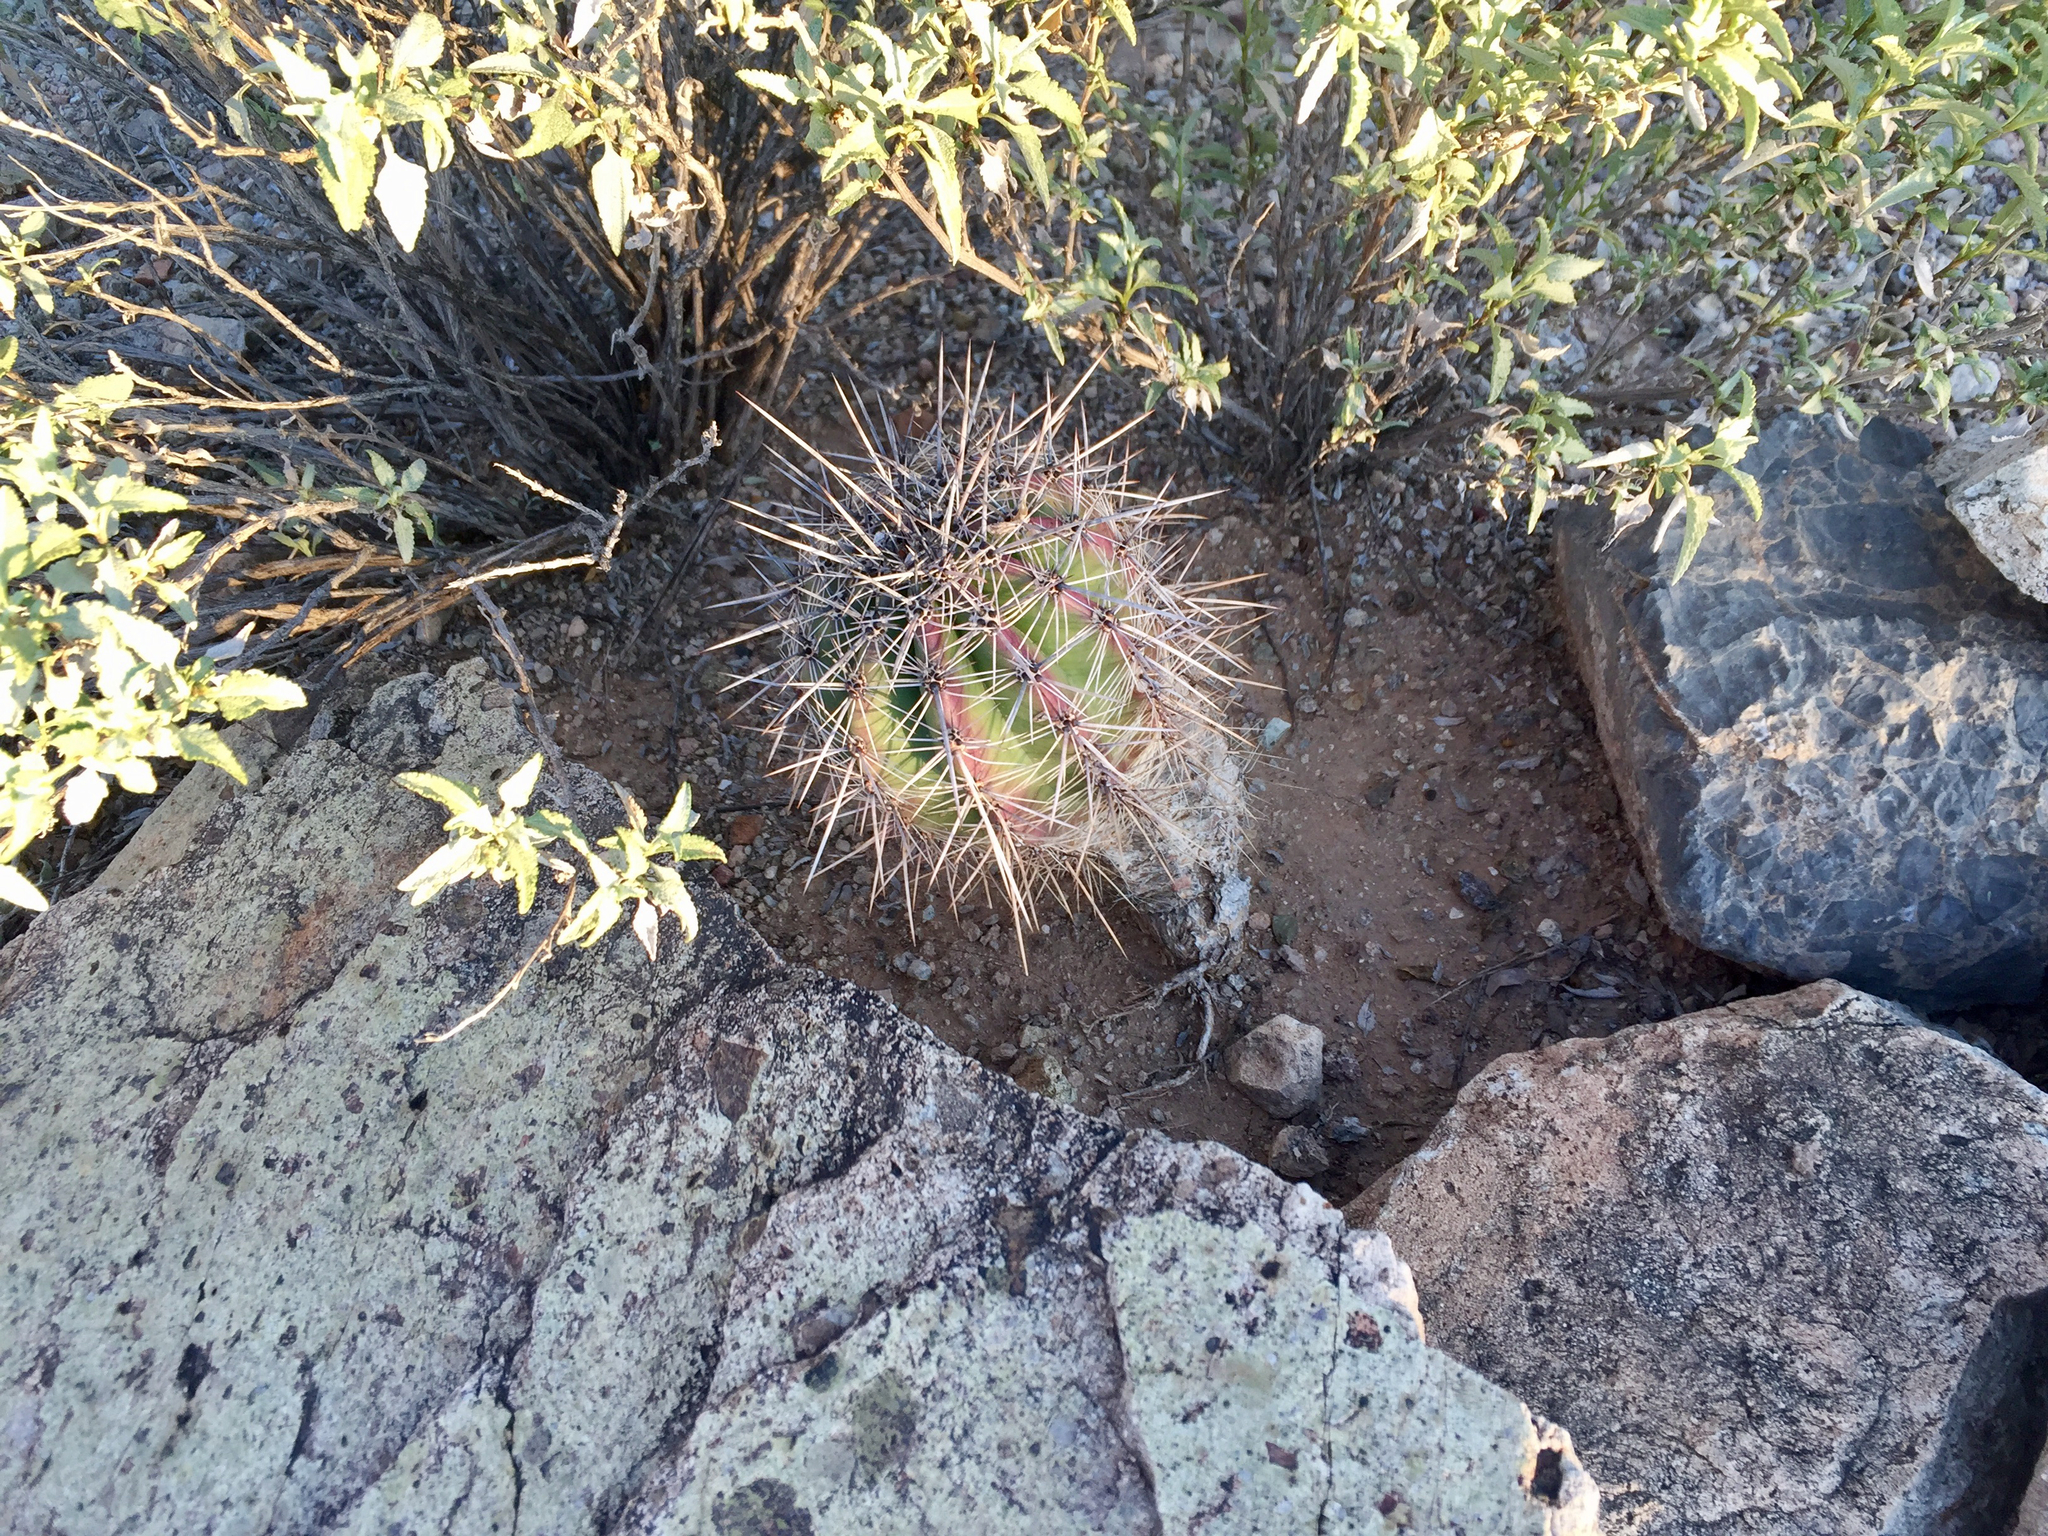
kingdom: Plantae
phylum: Tracheophyta
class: Magnoliopsida
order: Caryophyllales
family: Cactaceae
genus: Carnegiea
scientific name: Carnegiea gigantea
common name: Saguaro
